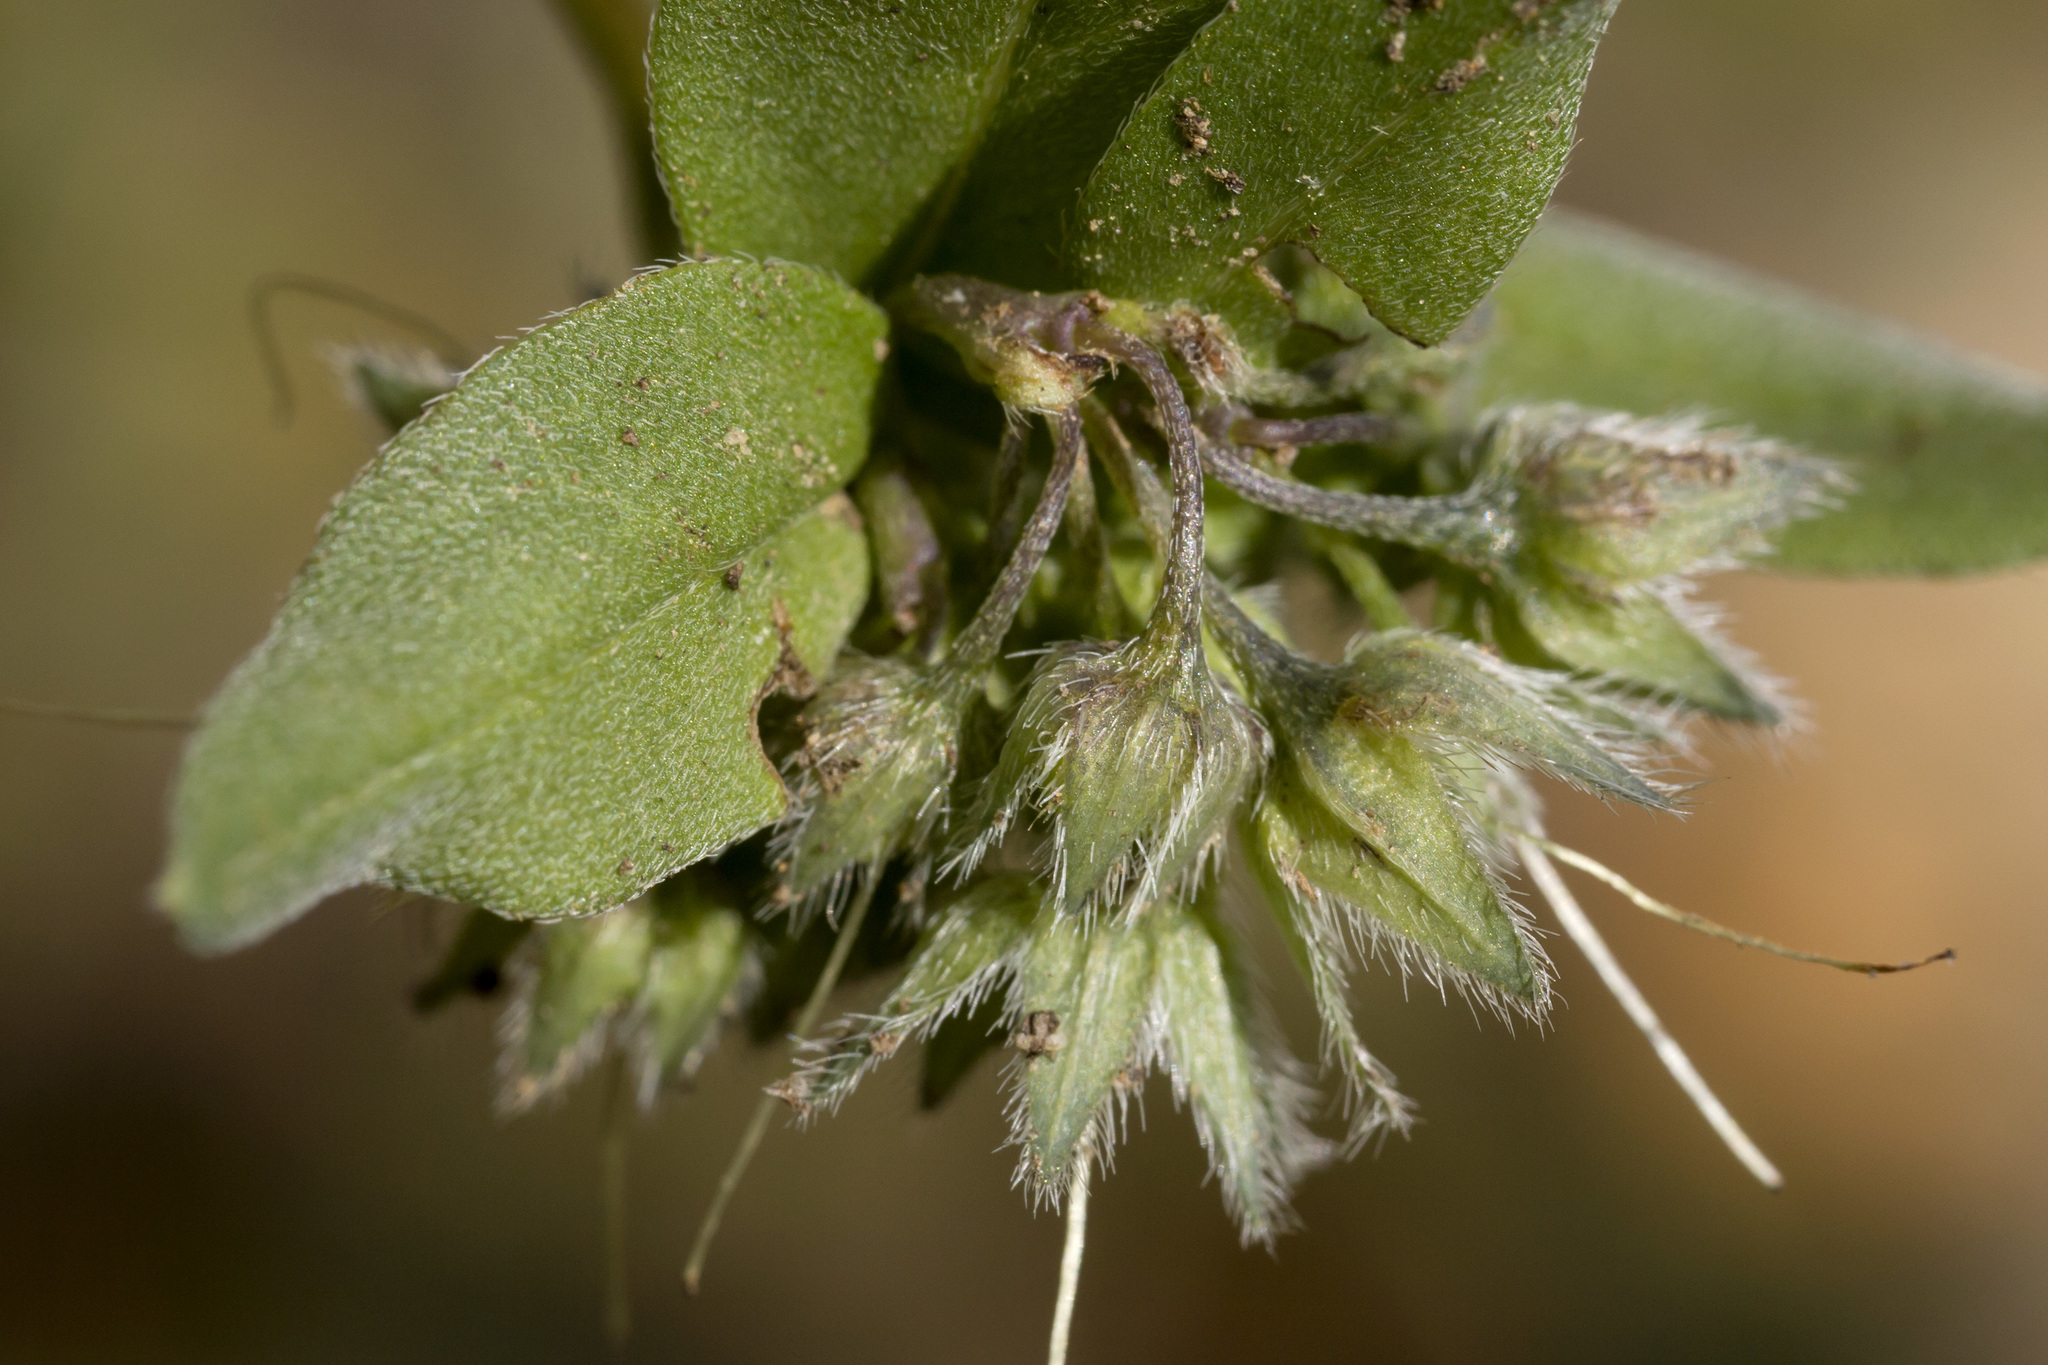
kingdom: Plantae
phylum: Tracheophyta
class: Magnoliopsida
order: Boraginales
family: Boraginaceae
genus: Mertensia
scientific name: Mertensia ovata
